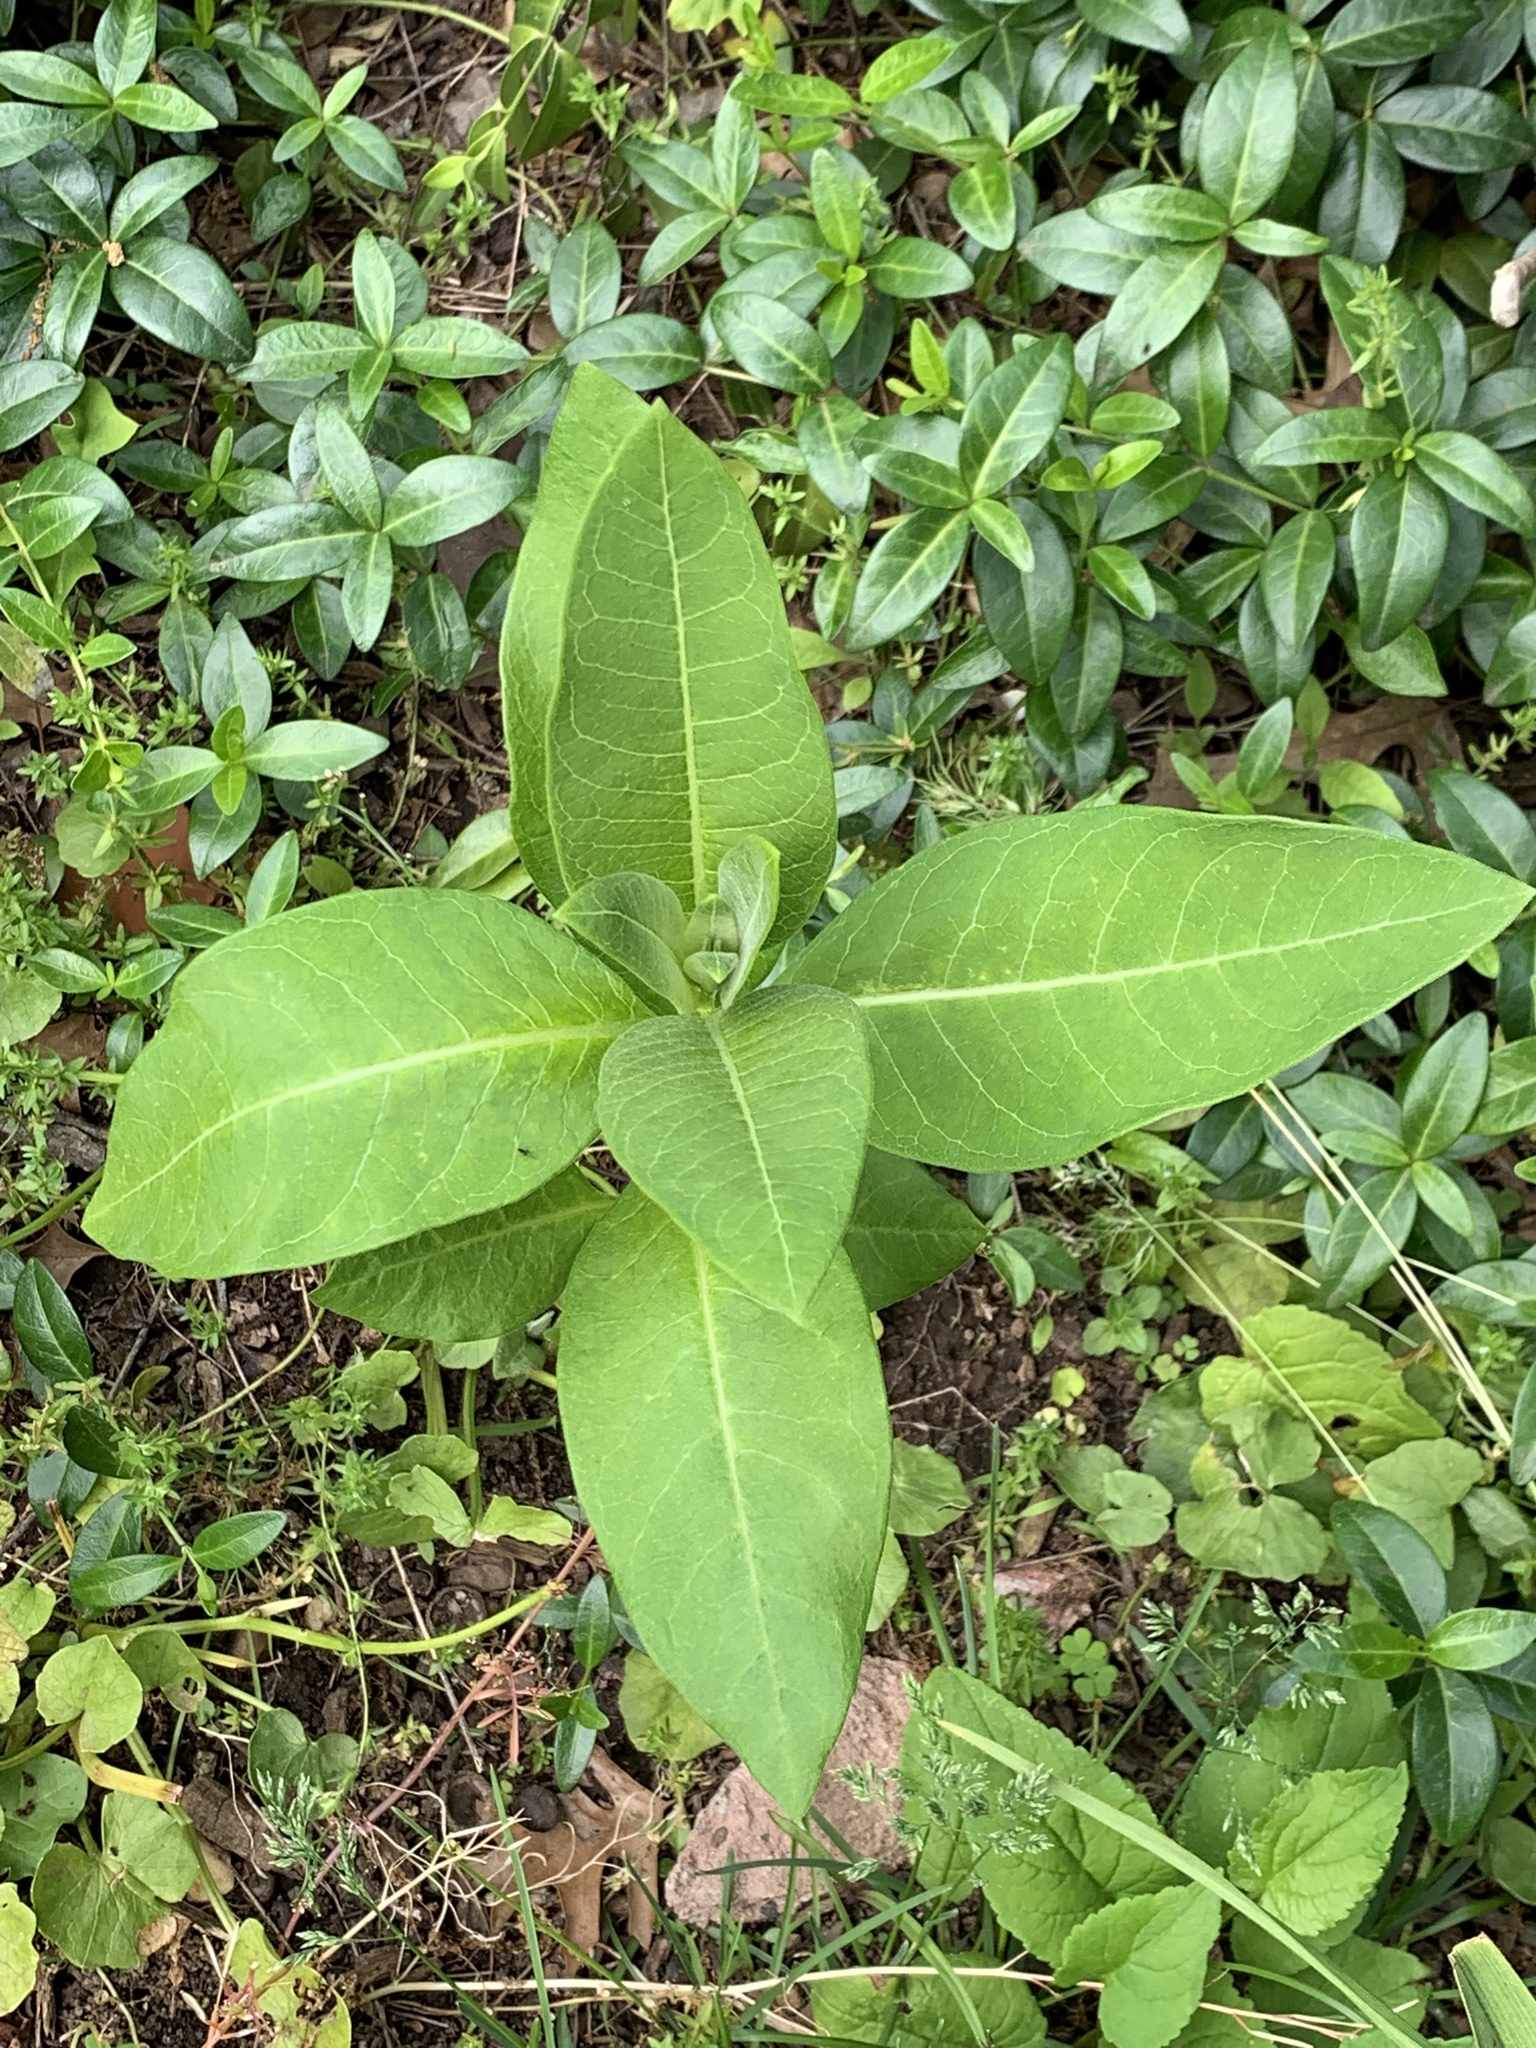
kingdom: Plantae
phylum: Tracheophyta
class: Magnoliopsida
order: Gentianales
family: Apocynaceae
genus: Asclepias
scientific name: Asclepias syriaca
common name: Common milkweed
